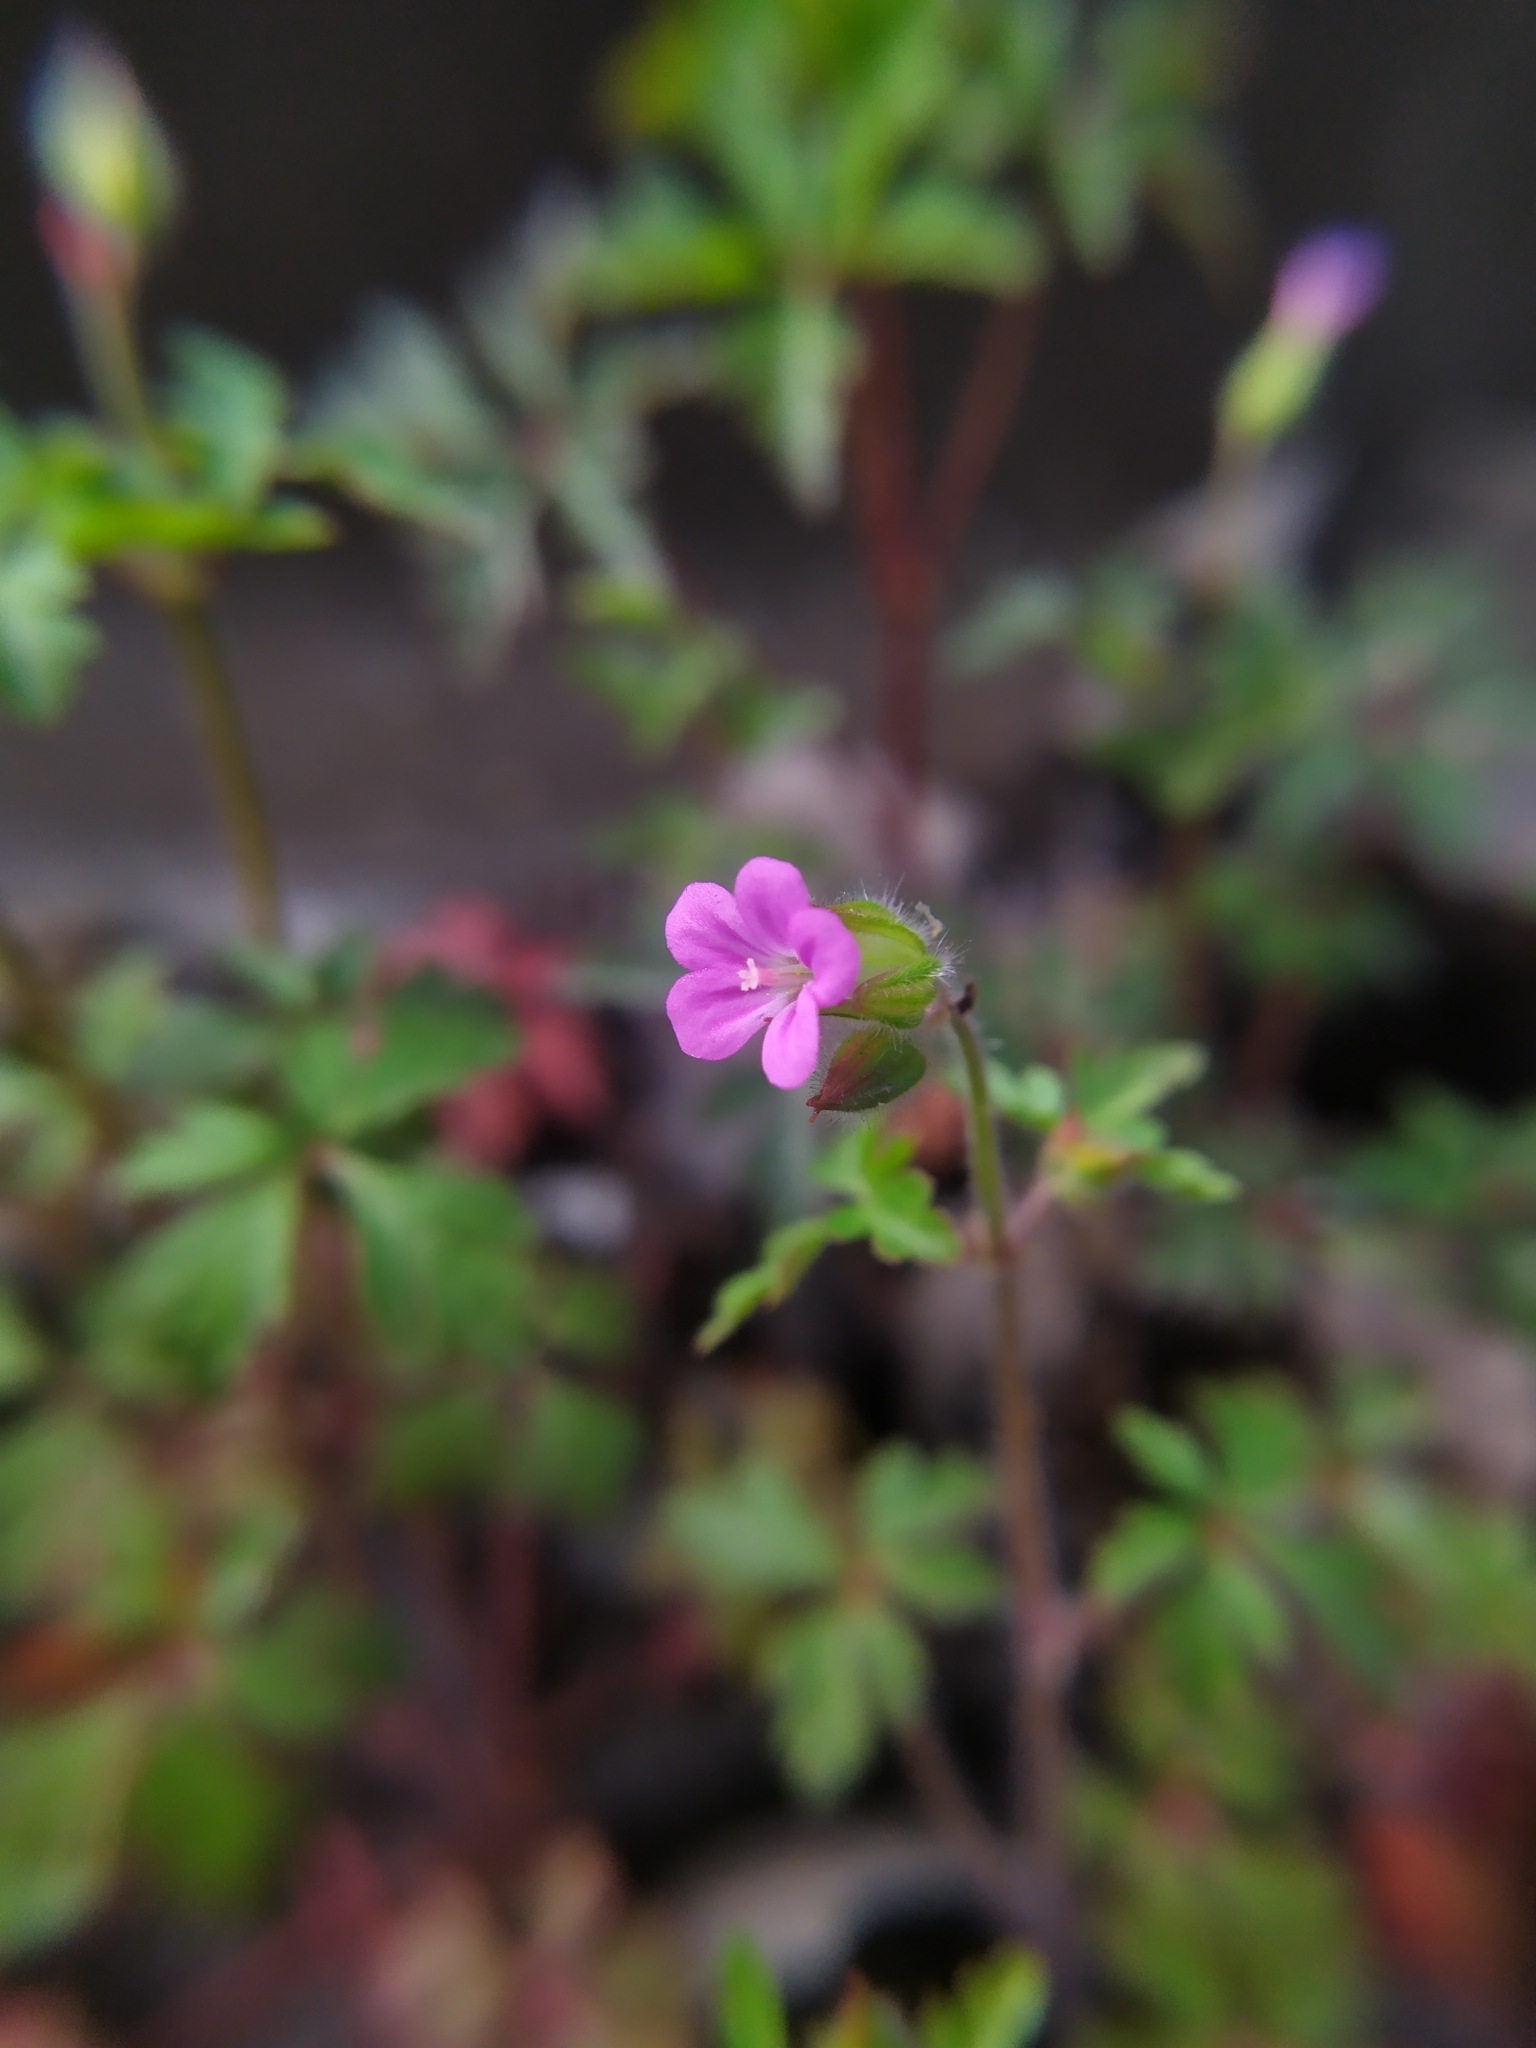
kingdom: Plantae
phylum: Tracheophyta
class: Magnoliopsida
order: Geraniales
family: Geraniaceae
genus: Geranium
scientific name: Geranium robertianum
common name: Herb-robert
